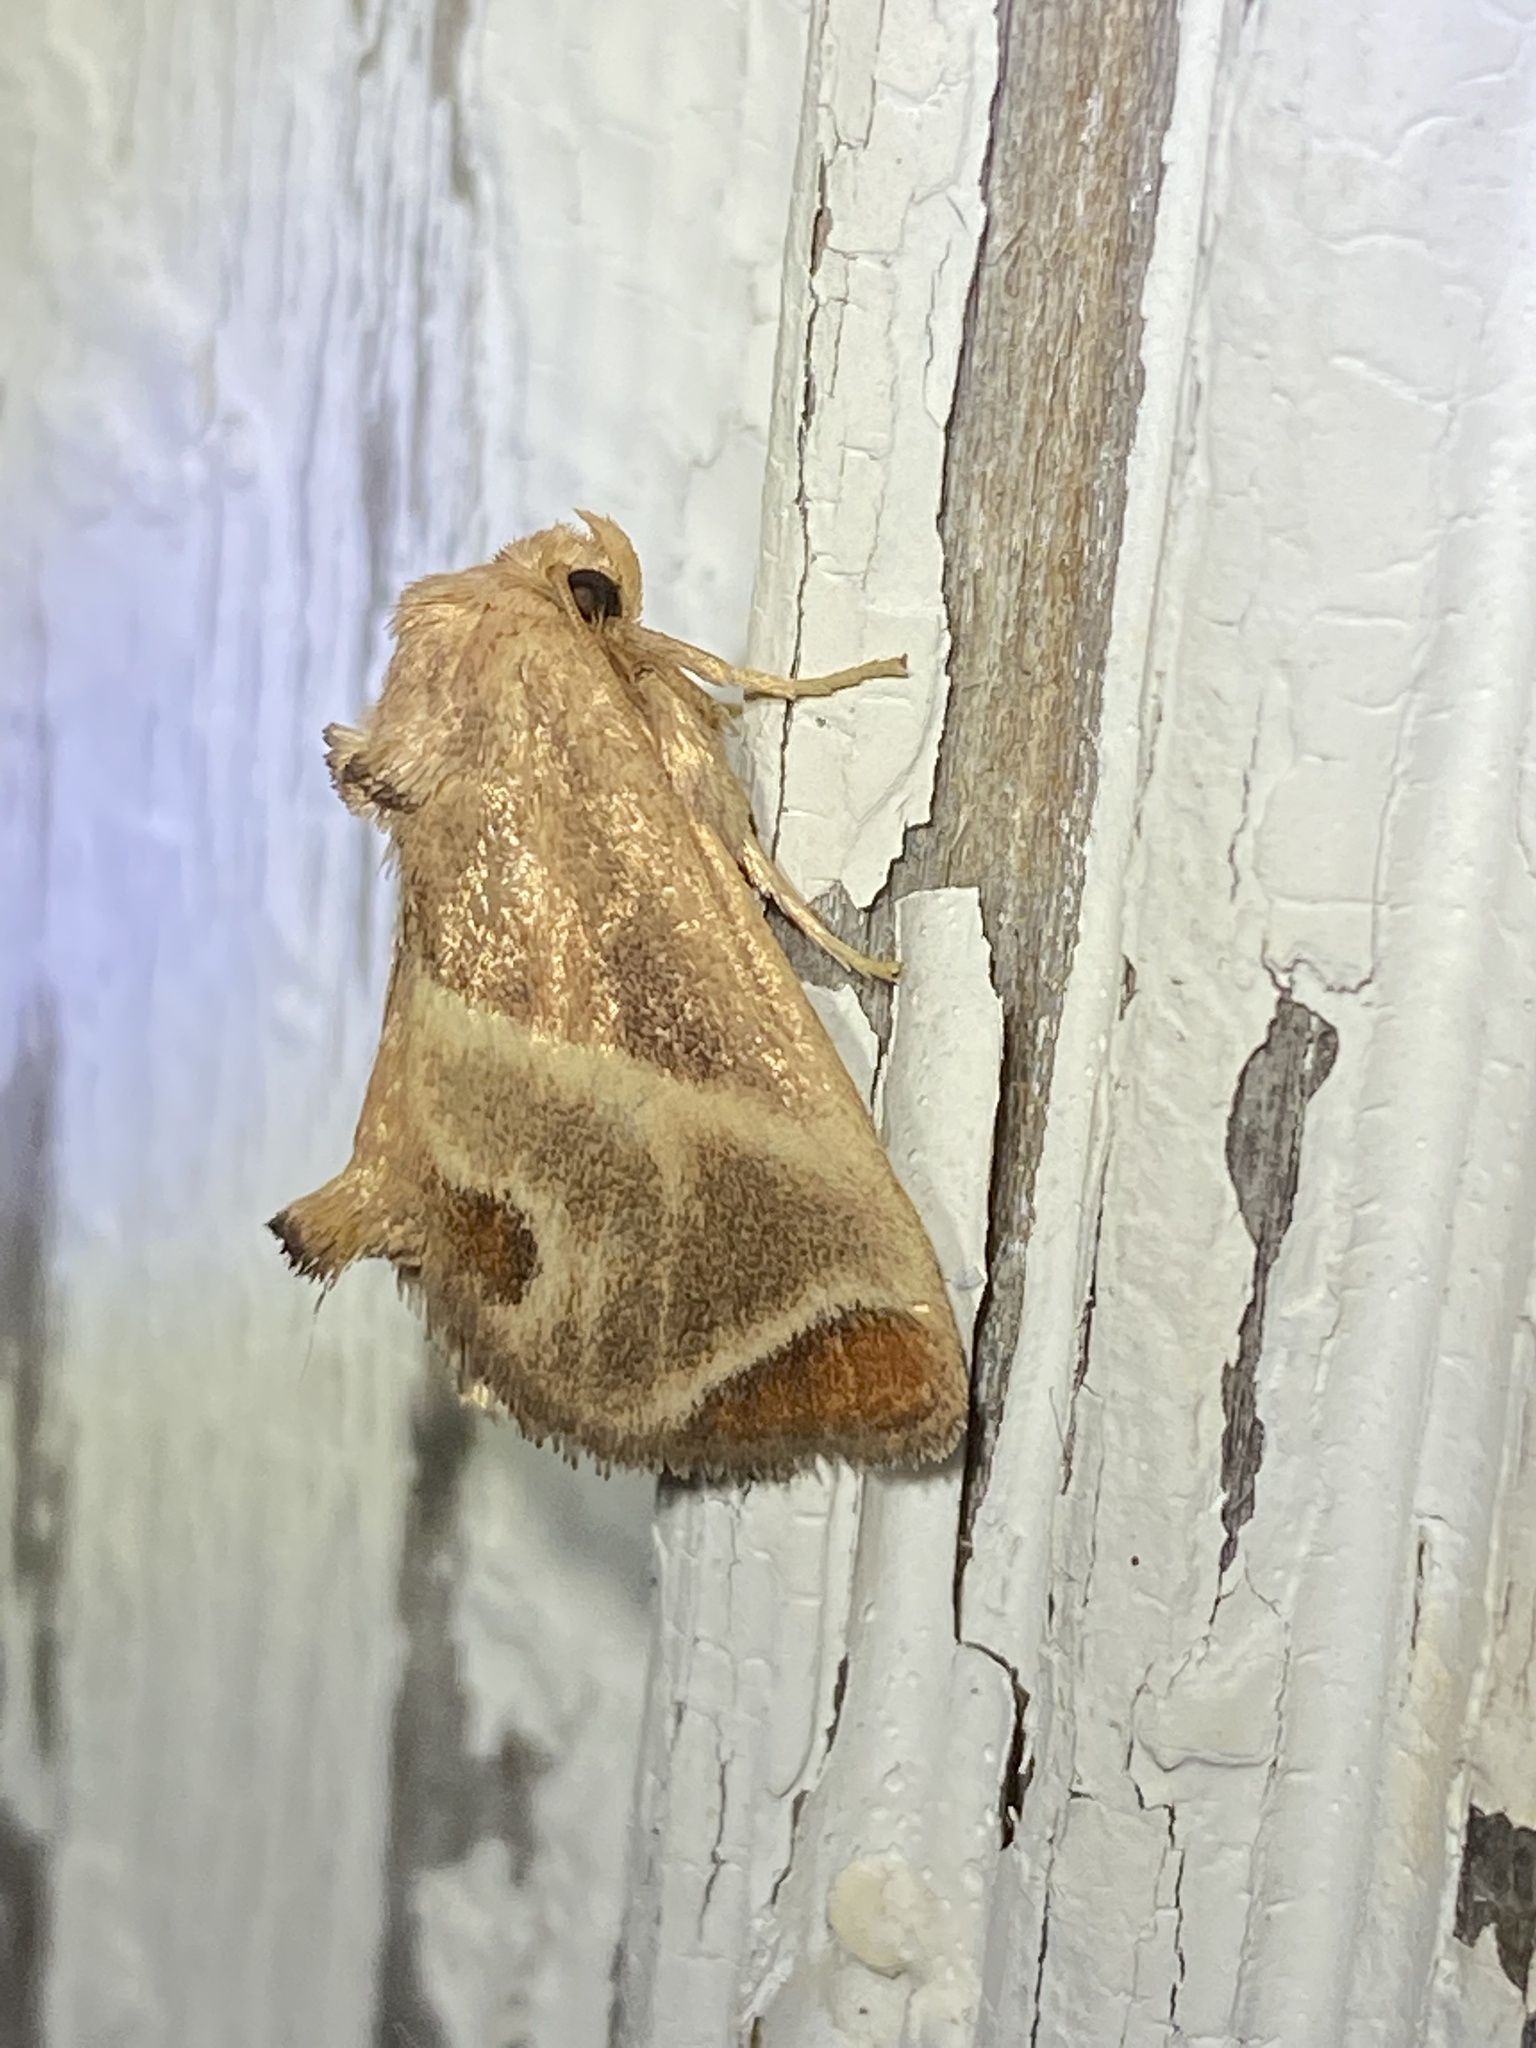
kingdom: Animalia
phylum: Arthropoda
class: Insecta
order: Lepidoptera
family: Limacodidae
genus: Apoda
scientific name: Apoda biguttata
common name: Shagreened slug moth
